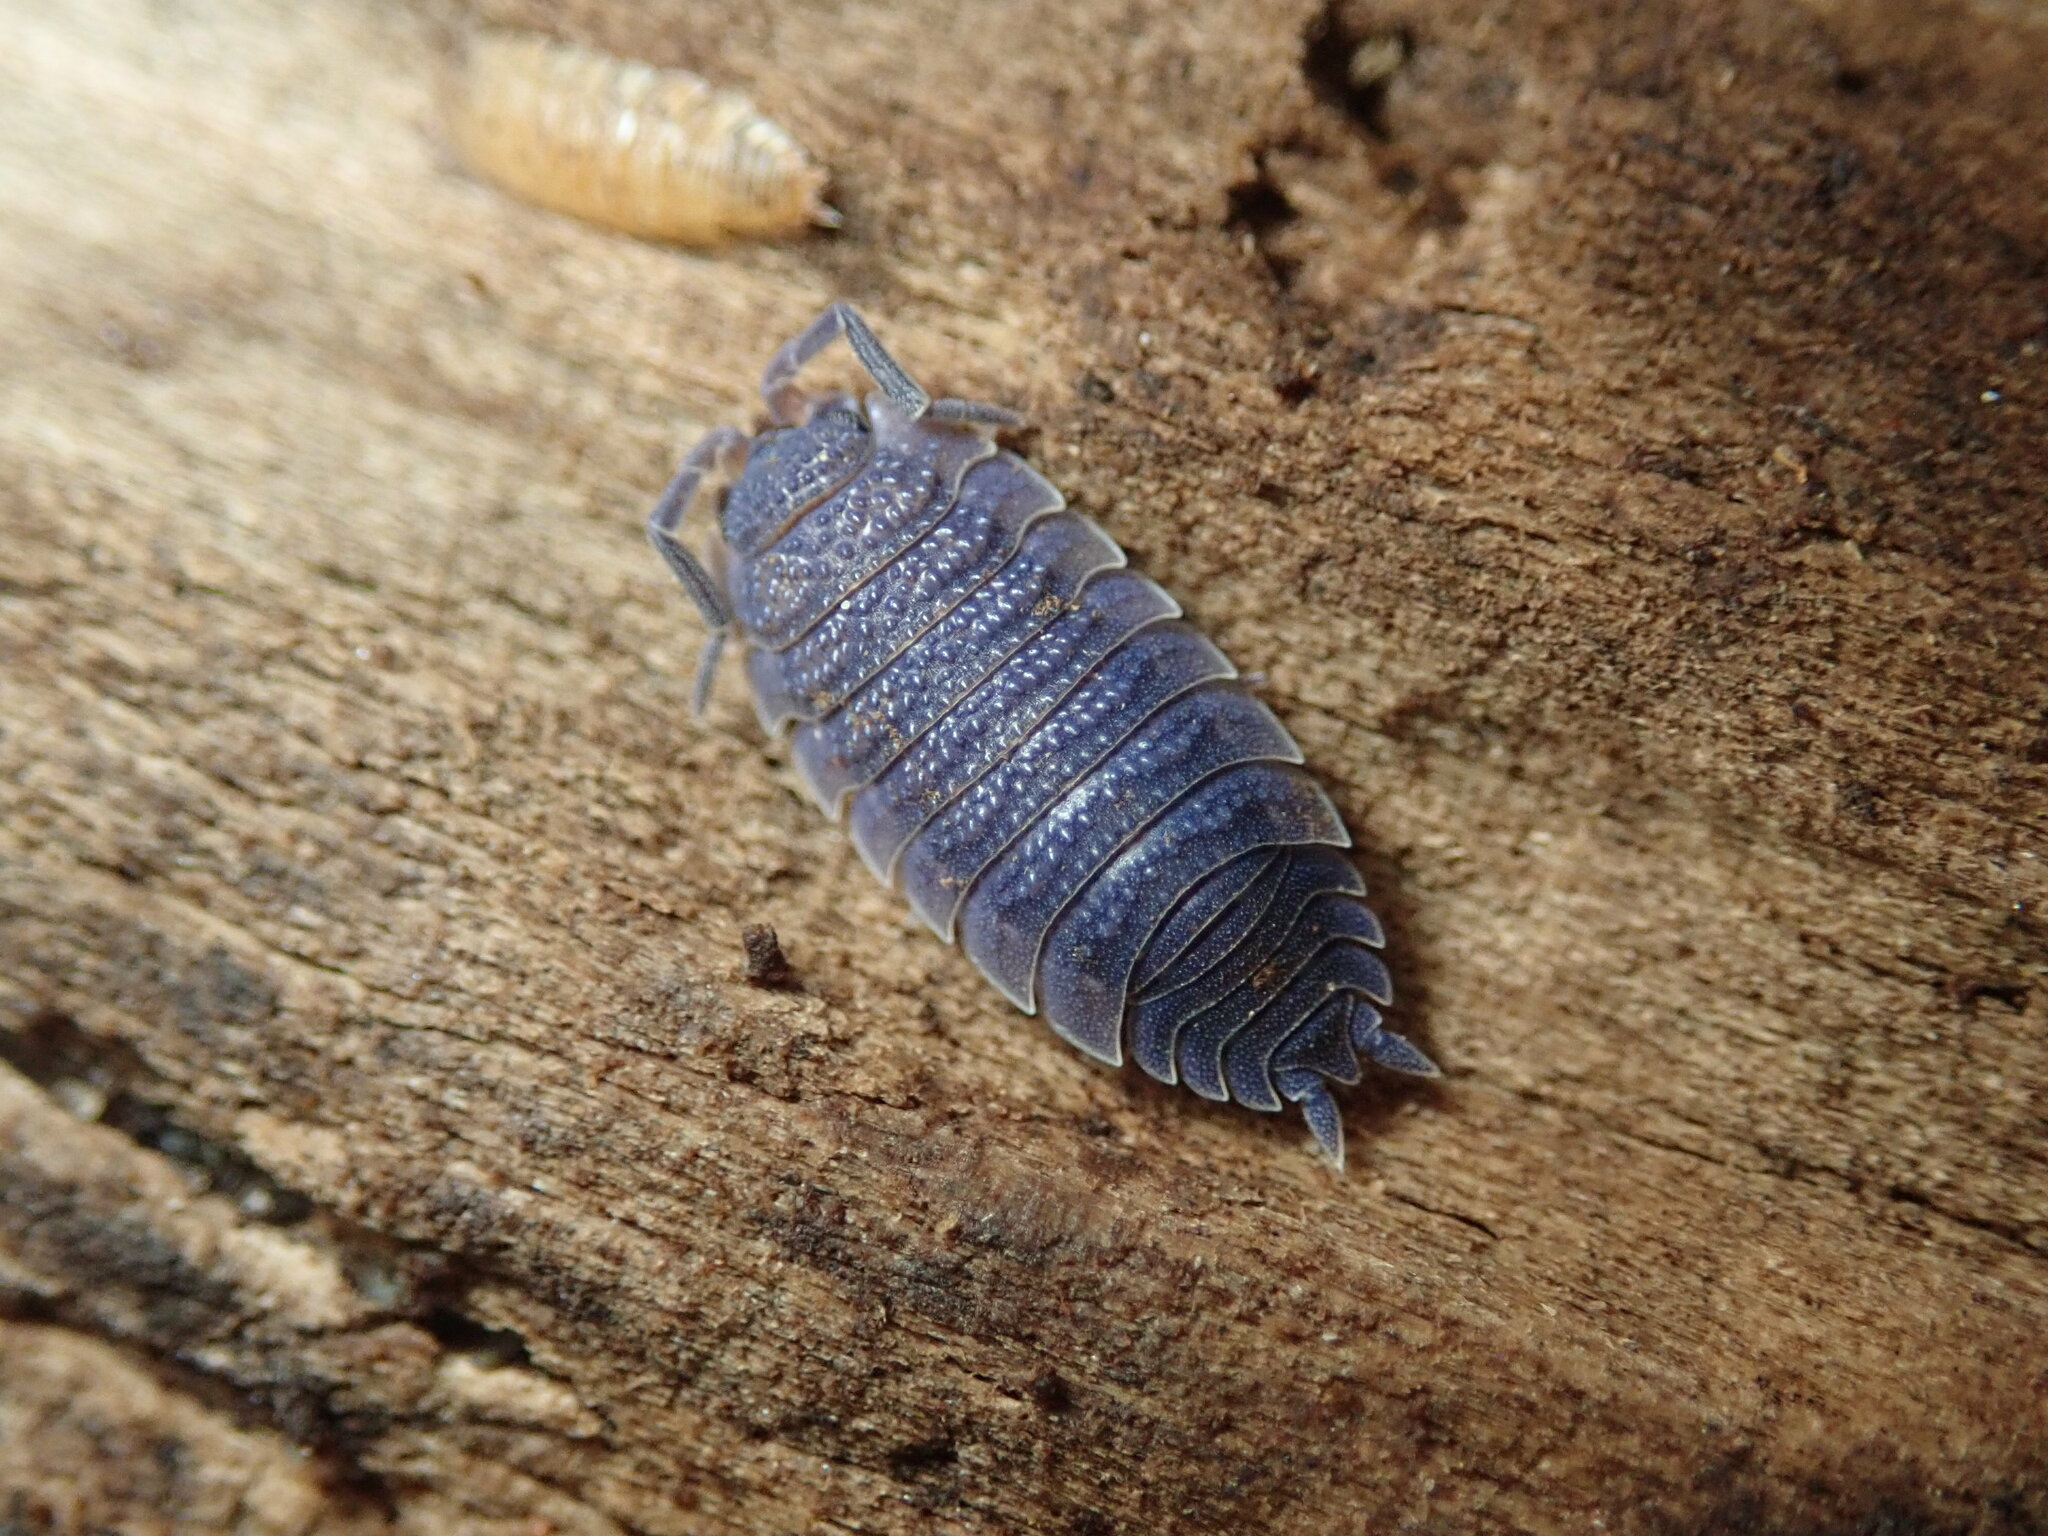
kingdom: Animalia
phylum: Arthropoda
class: Malacostraca
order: Isopoda
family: Porcellionidae
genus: Porcellio
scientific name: Porcellio scaber
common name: Common rough woodlouse
